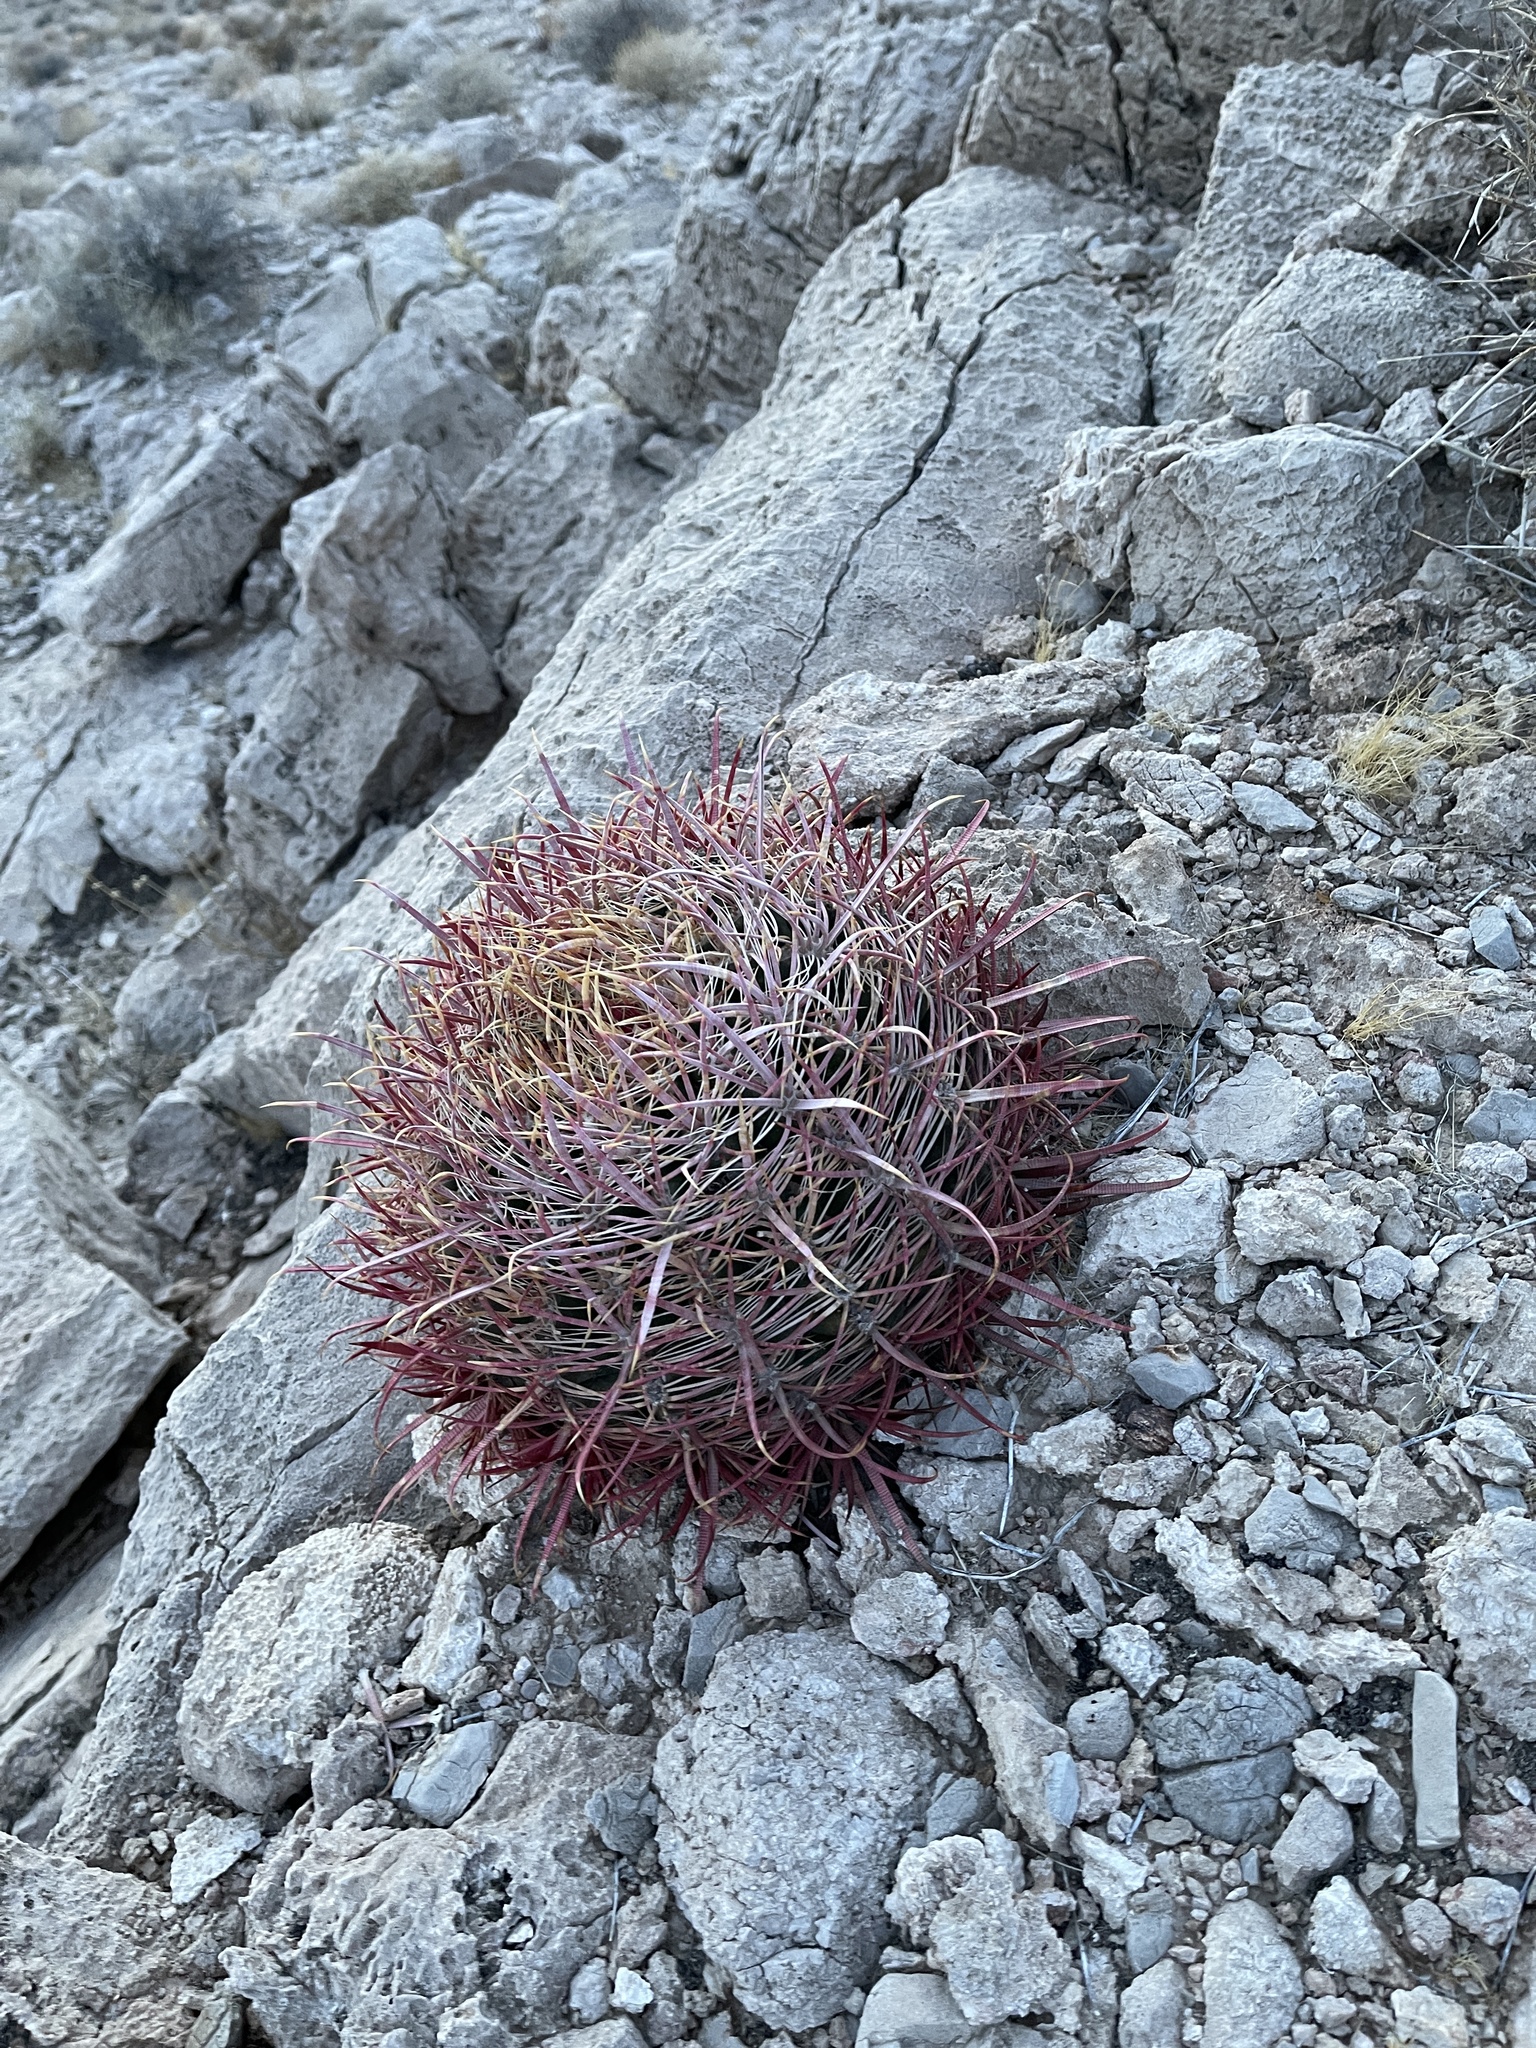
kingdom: Plantae
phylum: Tracheophyta
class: Magnoliopsida
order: Caryophyllales
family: Cactaceae
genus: Ferocactus
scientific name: Ferocactus cylindraceus
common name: California barrel cactus
